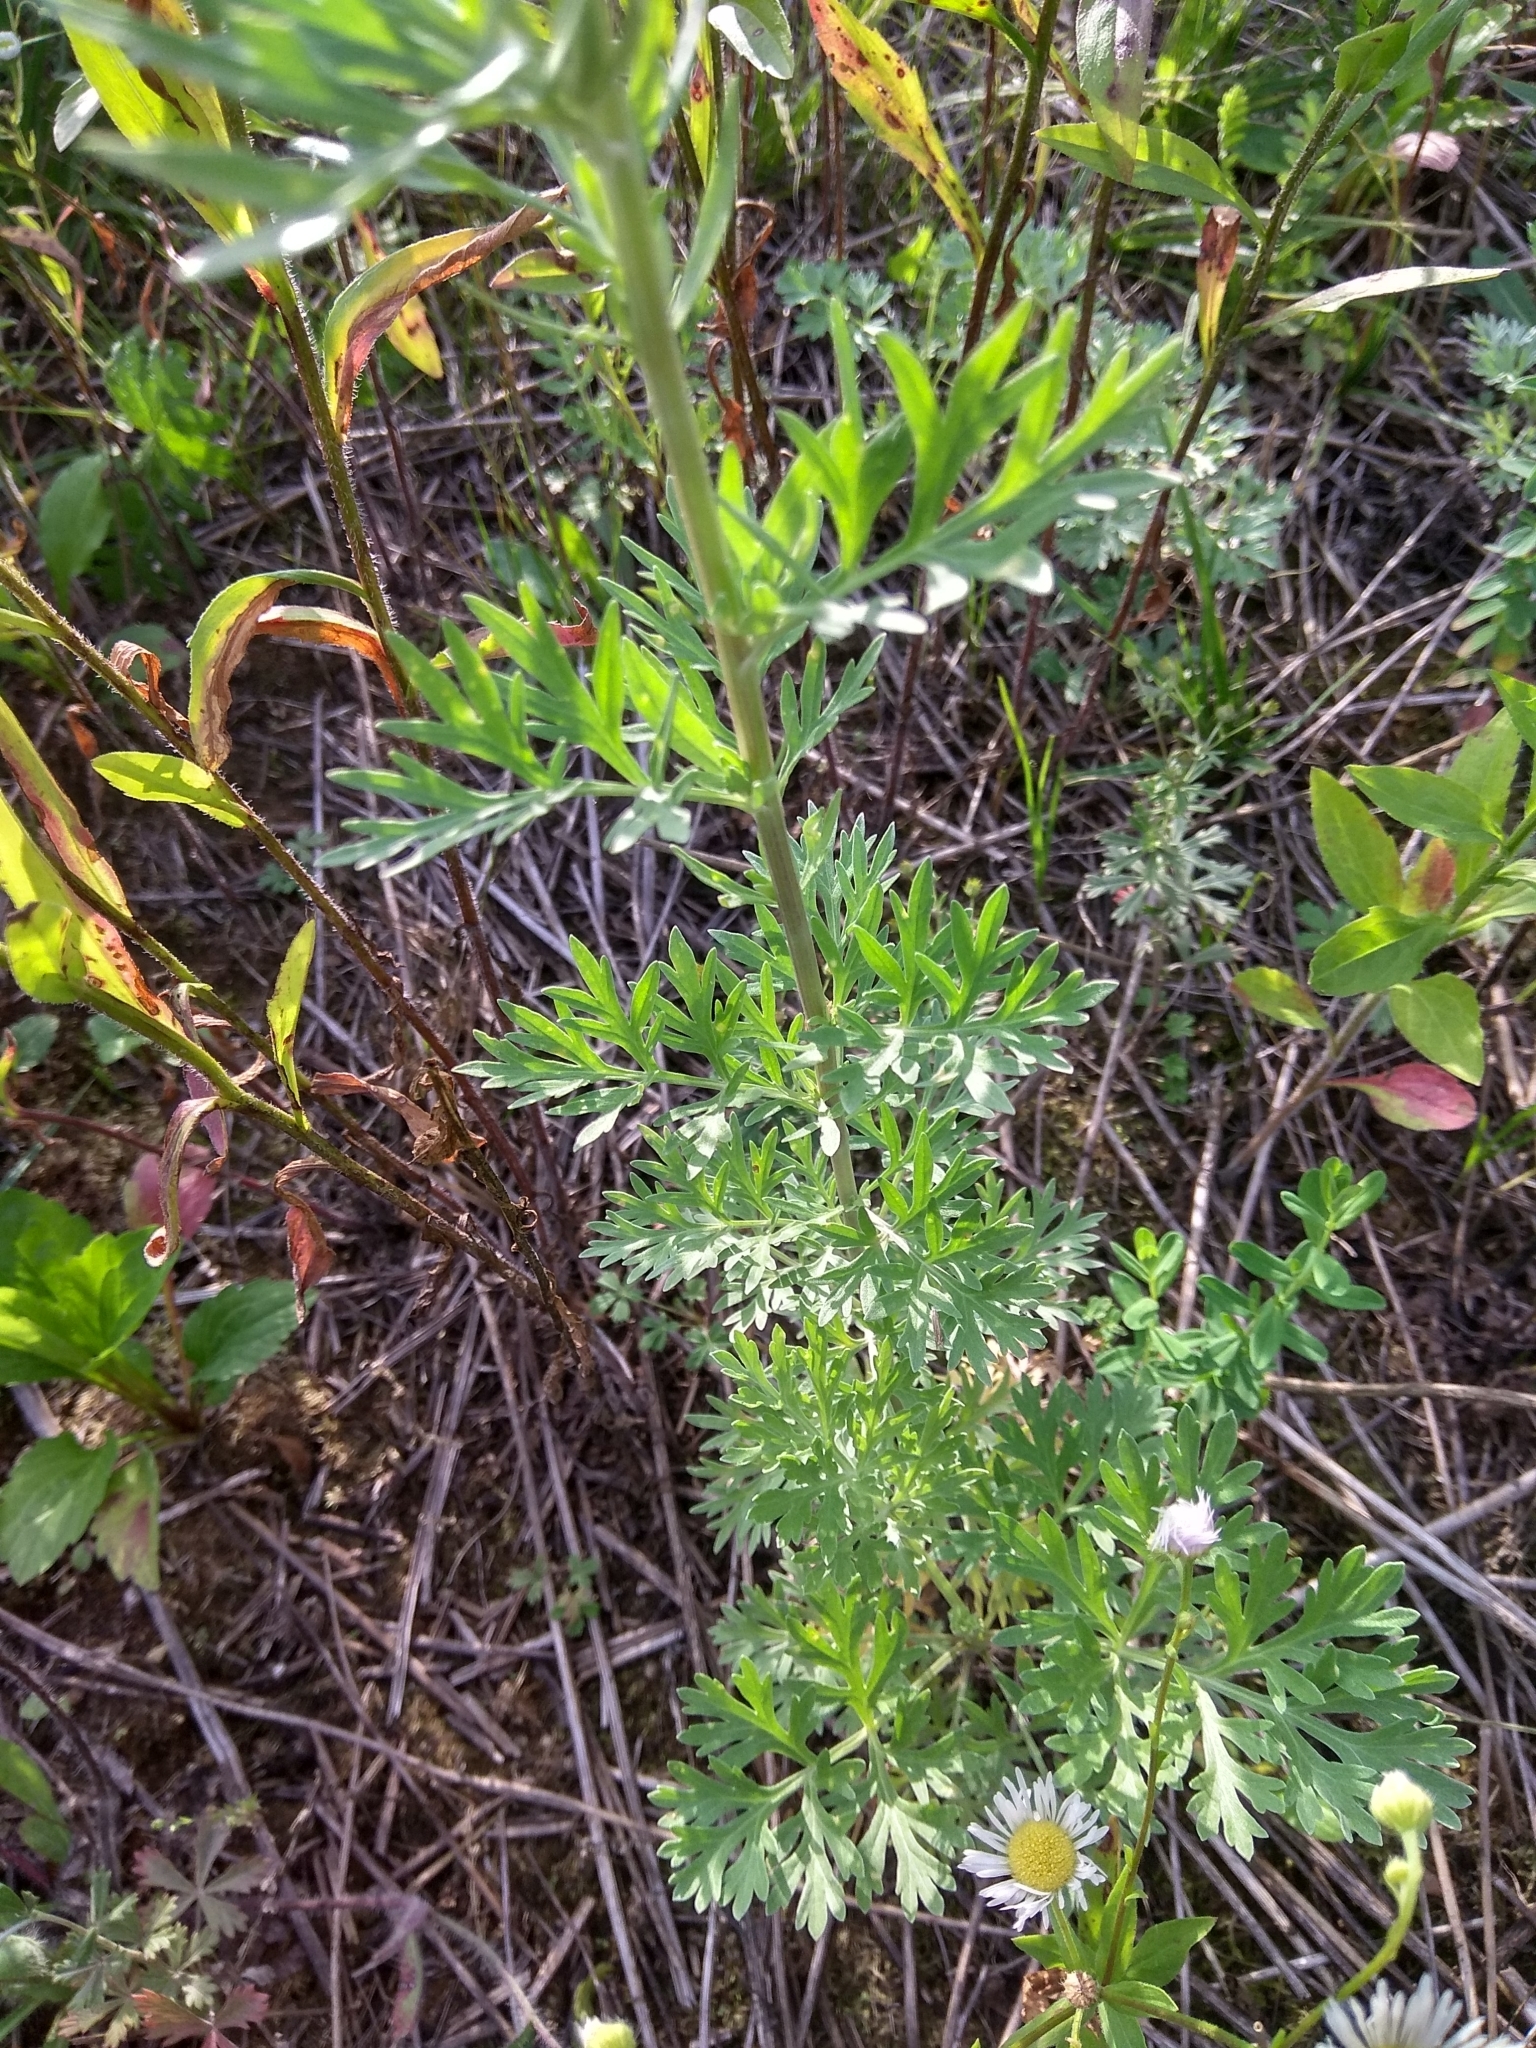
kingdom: Plantae
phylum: Tracheophyta
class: Magnoliopsida
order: Asterales
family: Asteraceae
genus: Artemisia
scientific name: Artemisia absinthium
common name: Wormwood
